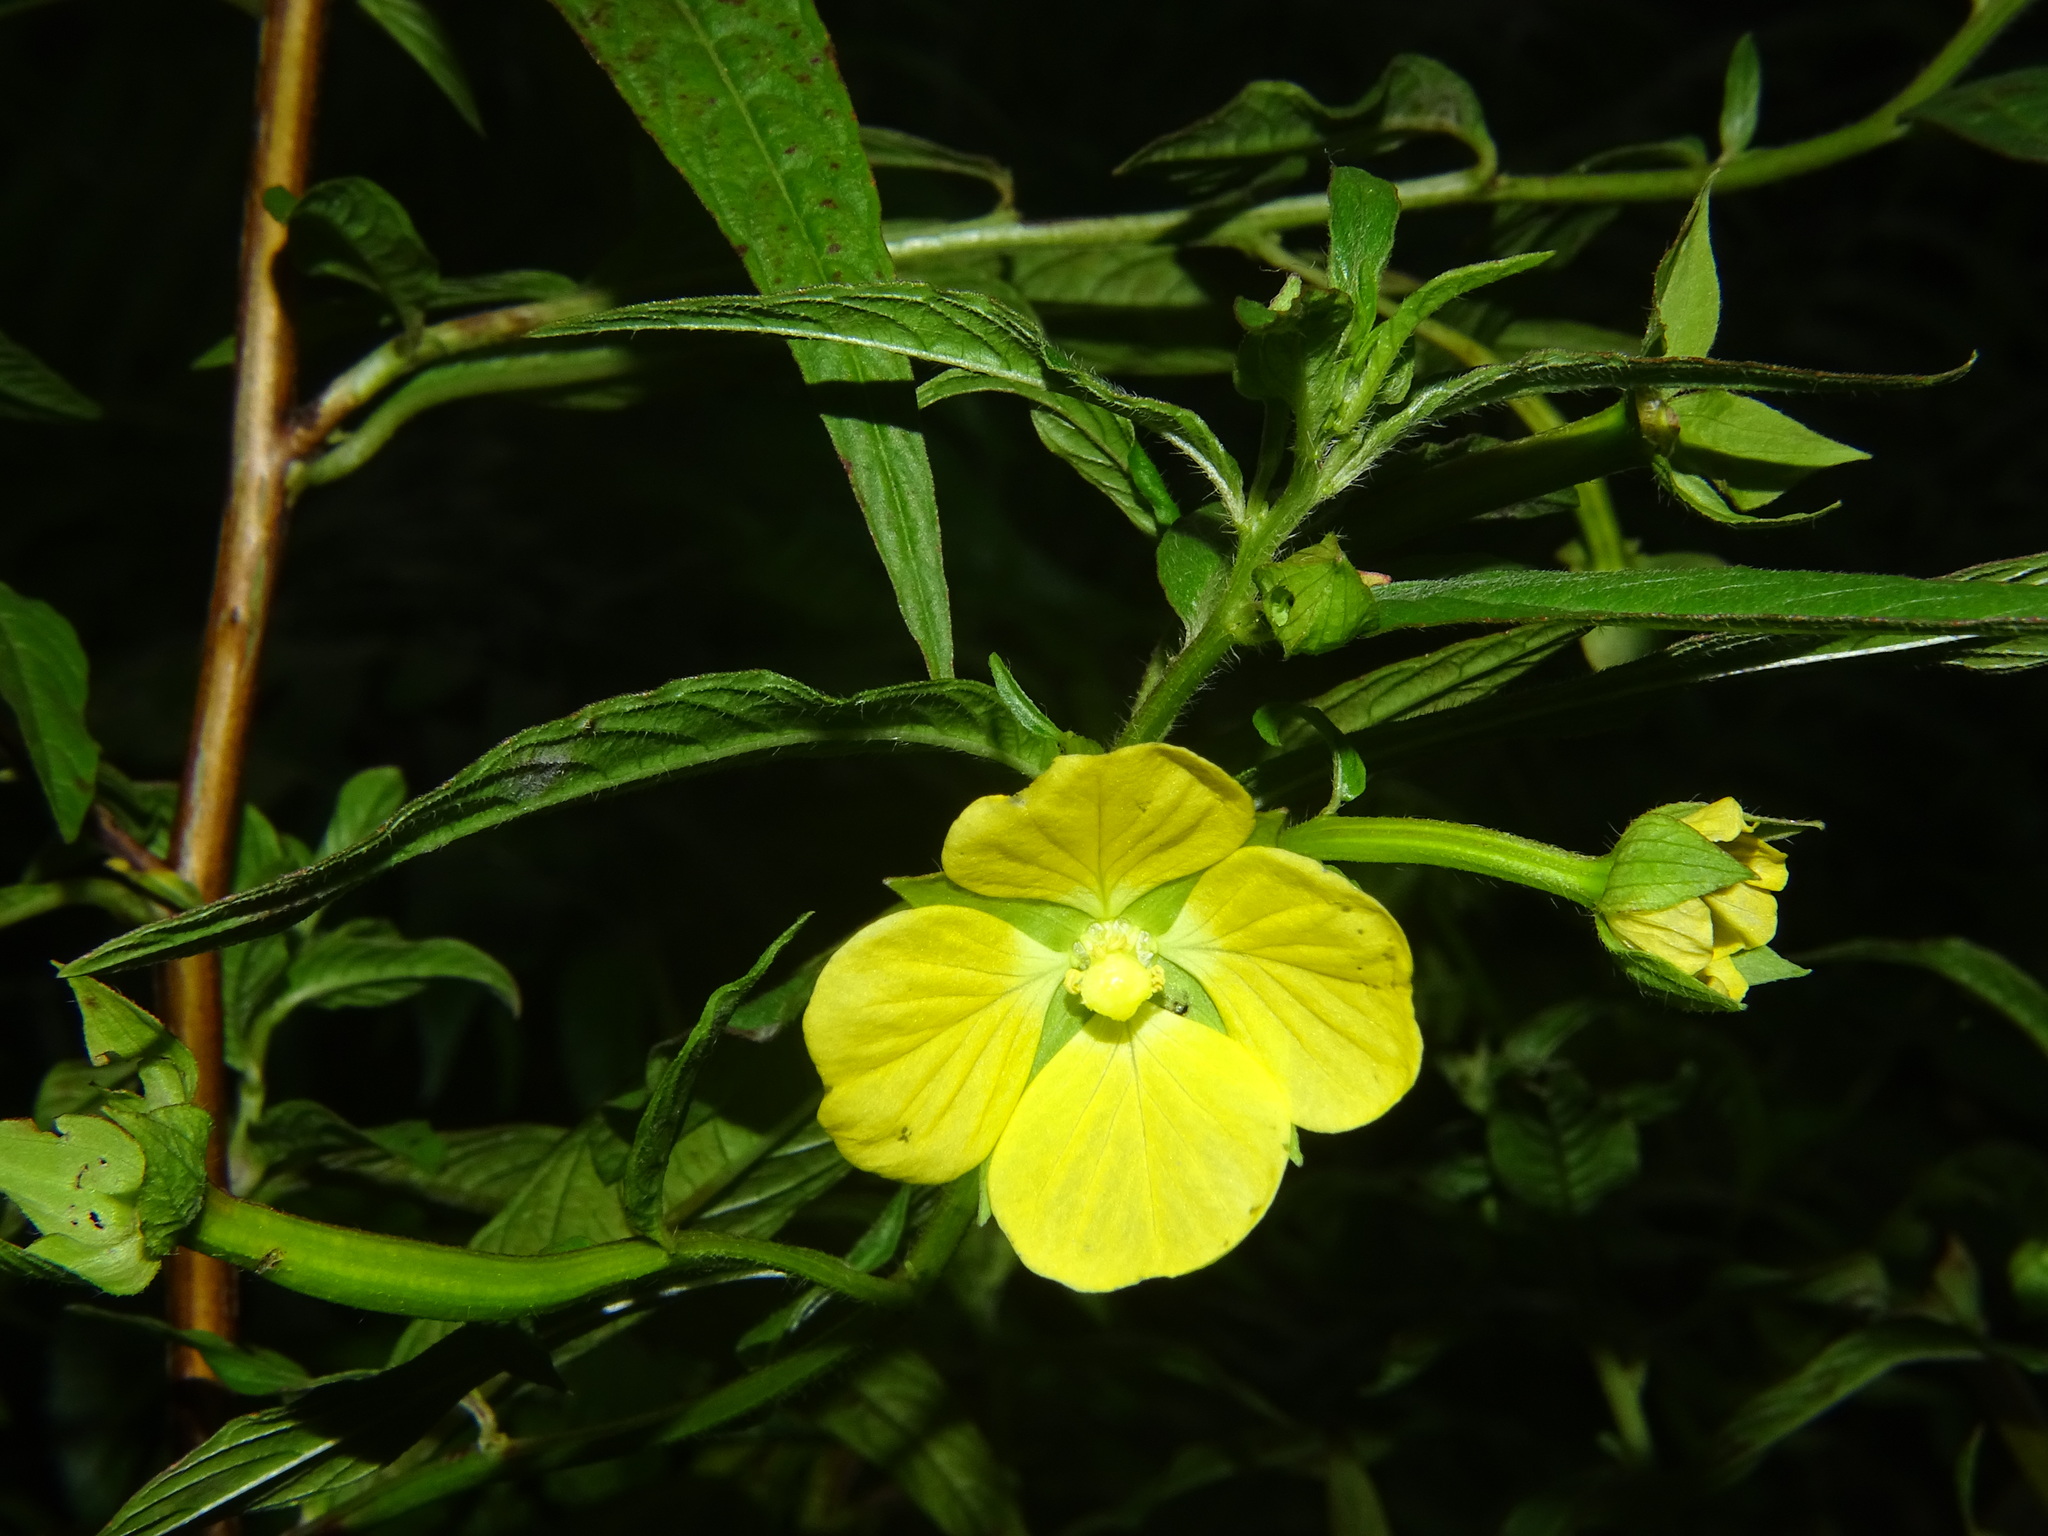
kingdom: Plantae
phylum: Tracheophyta
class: Magnoliopsida
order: Myrtales
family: Onagraceae
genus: Ludwigia
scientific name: Ludwigia octovalvis
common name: Water-primrose
